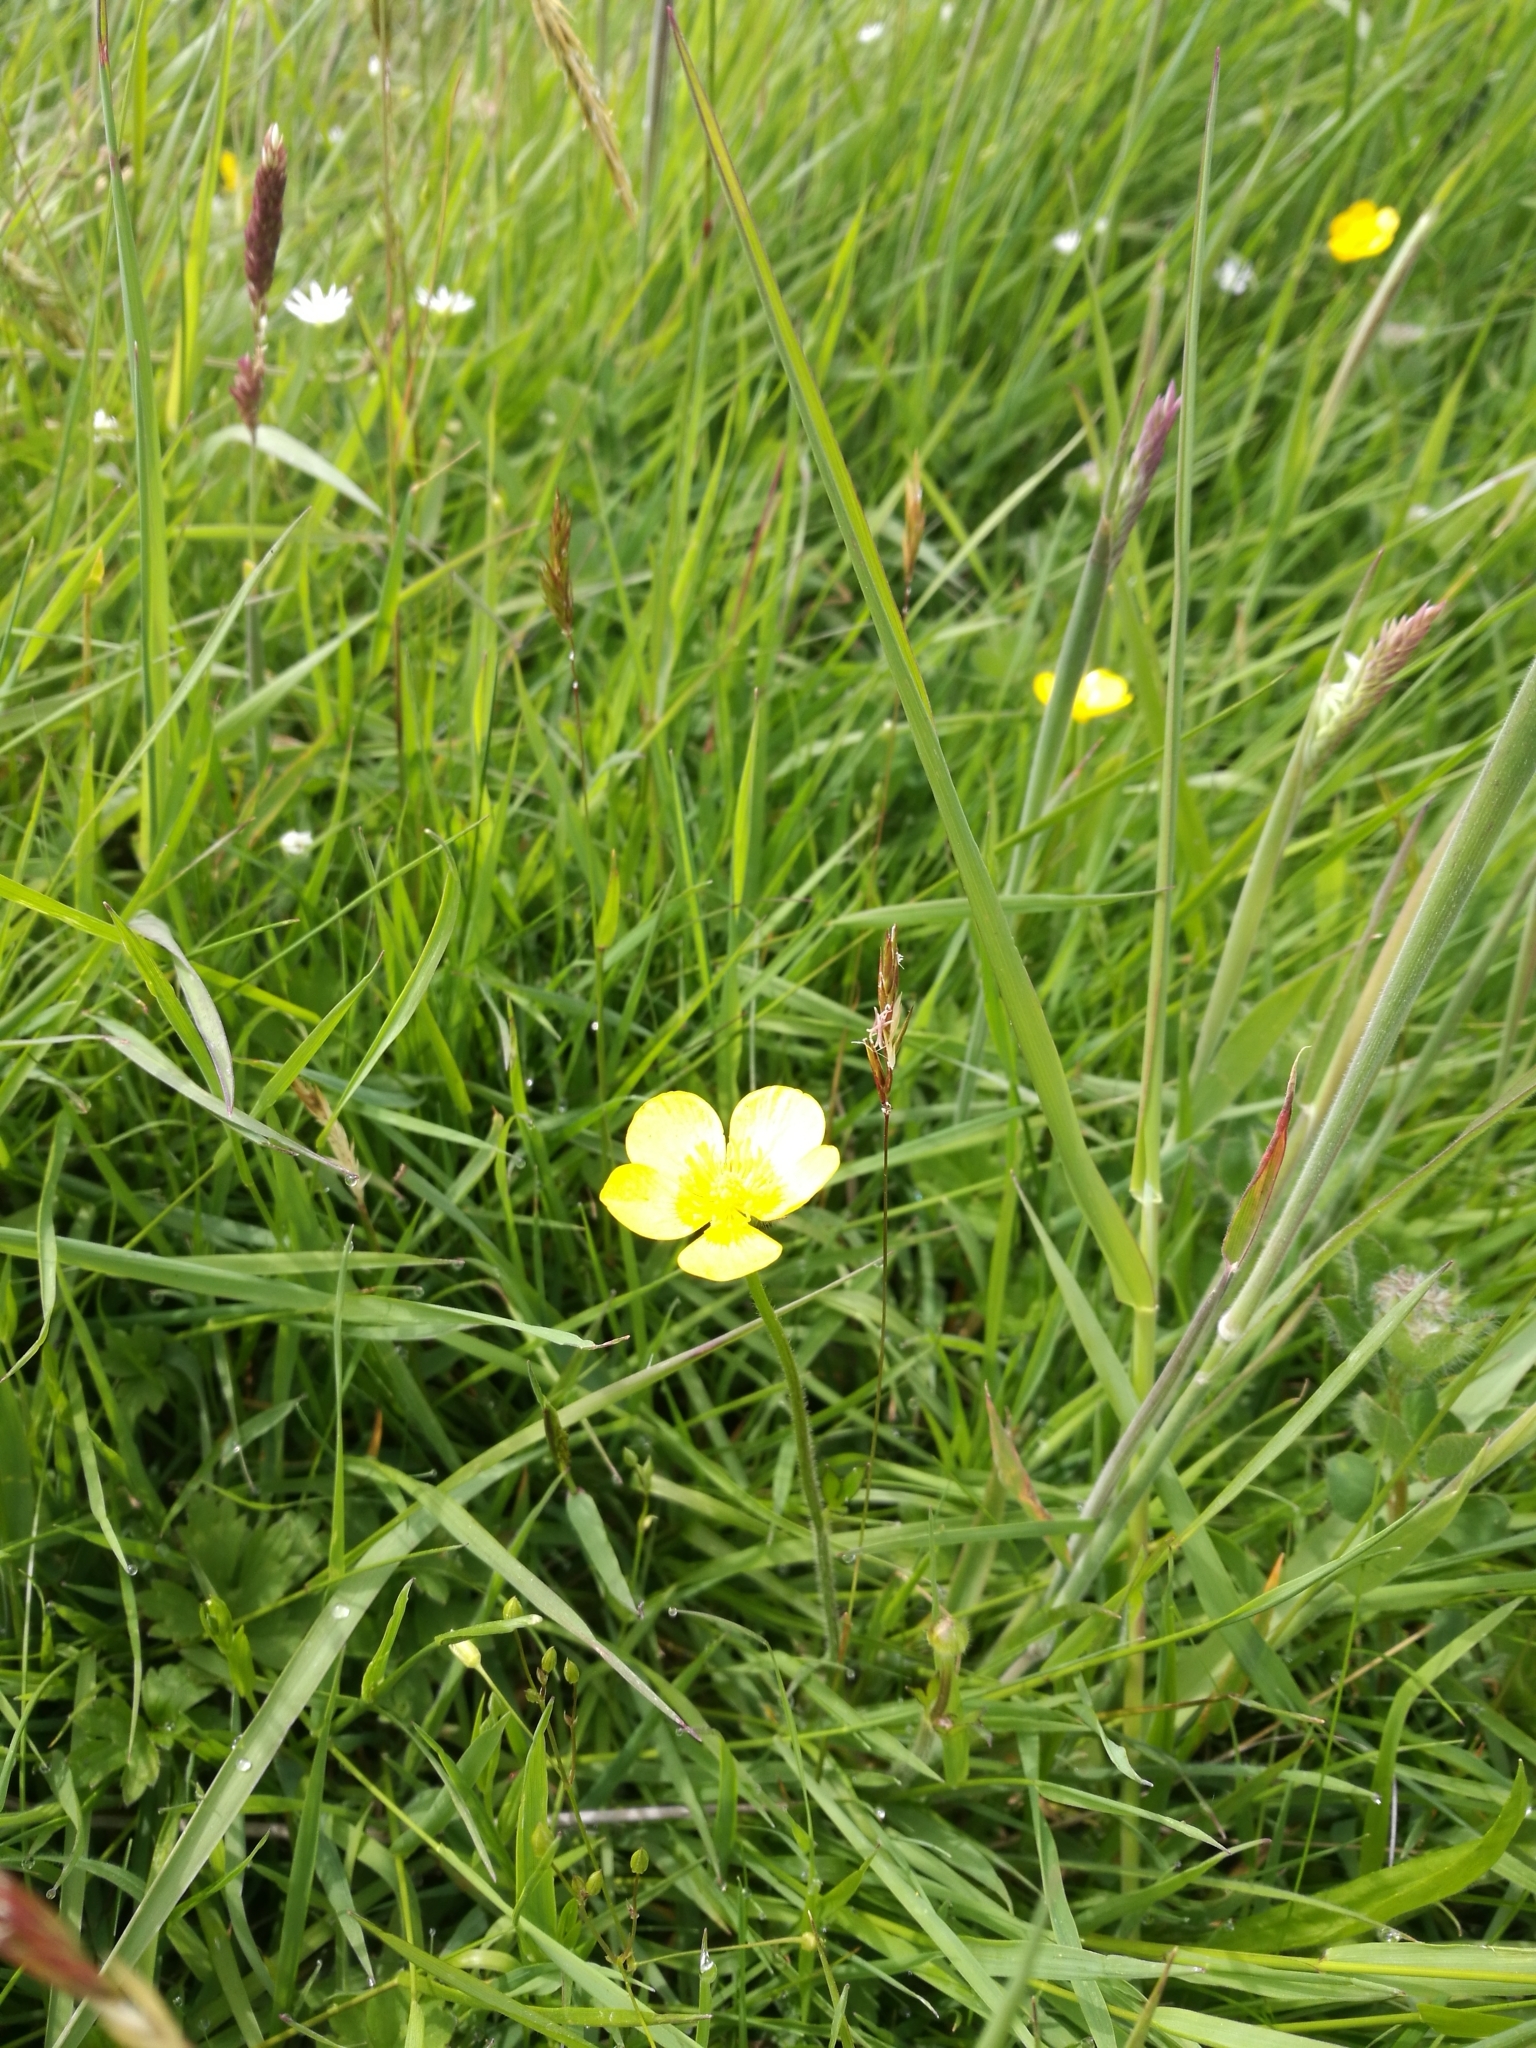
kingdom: Plantae
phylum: Tracheophyta
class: Magnoliopsida
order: Ranunculales
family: Ranunculaceae
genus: Ranunculus
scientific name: Ranunculus repens
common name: Creeping buttercup
